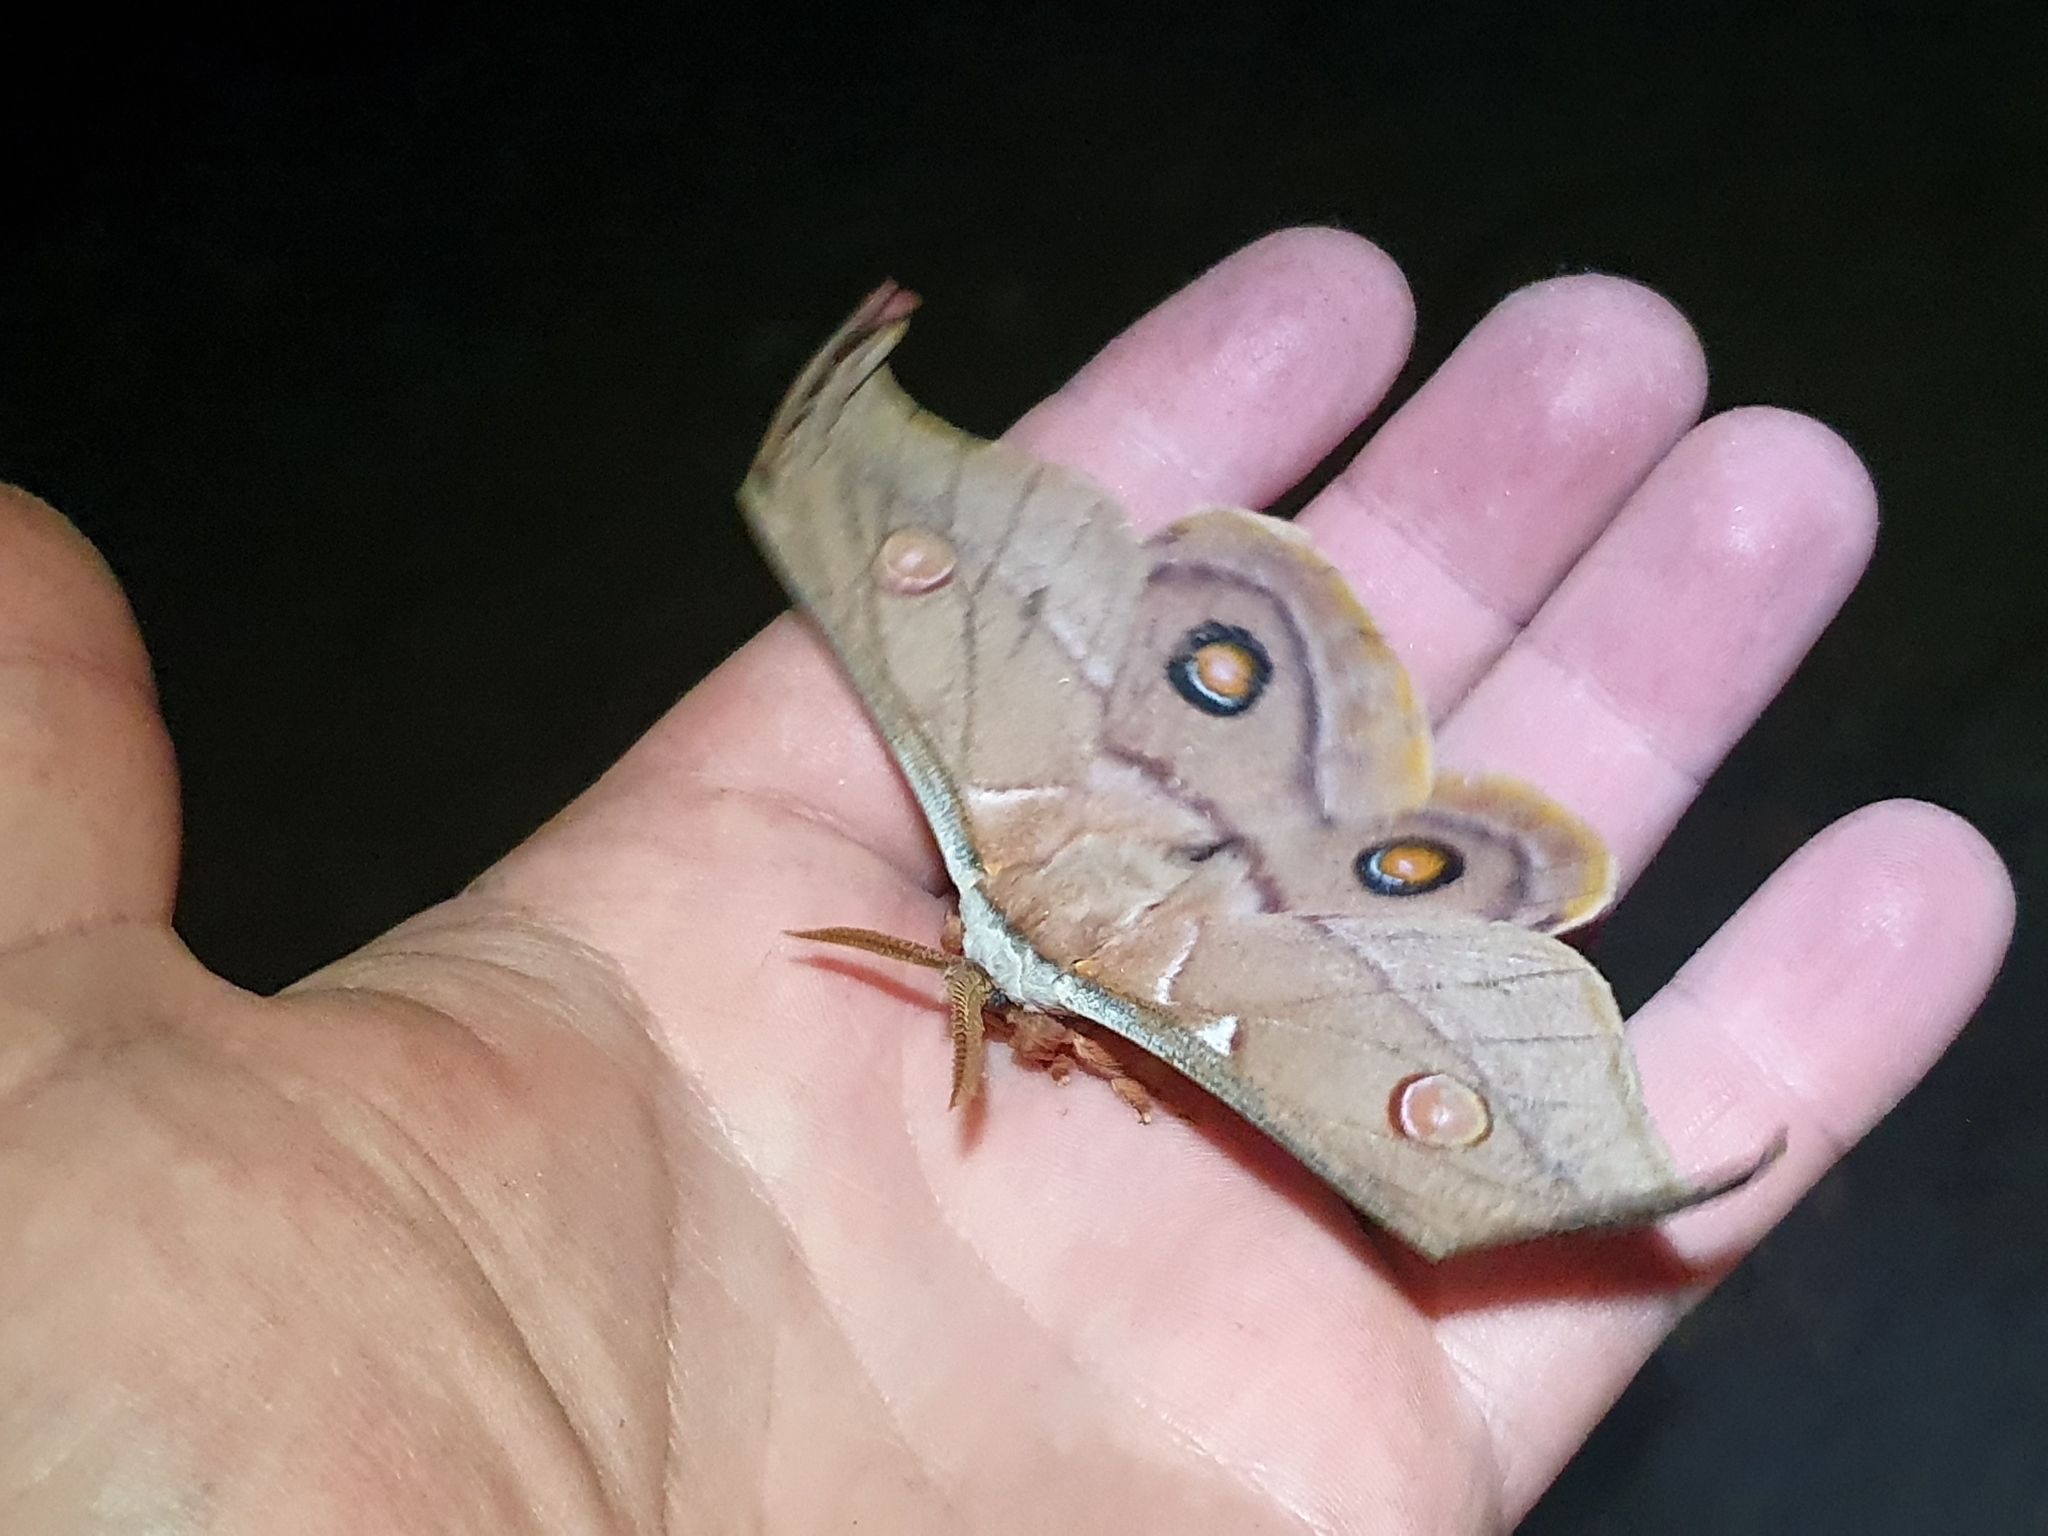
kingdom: Animalia
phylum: Arthropoda
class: Insecta
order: Lepidoptera
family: Saturniidae
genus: Opodiphthera
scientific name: Opodiphthera
